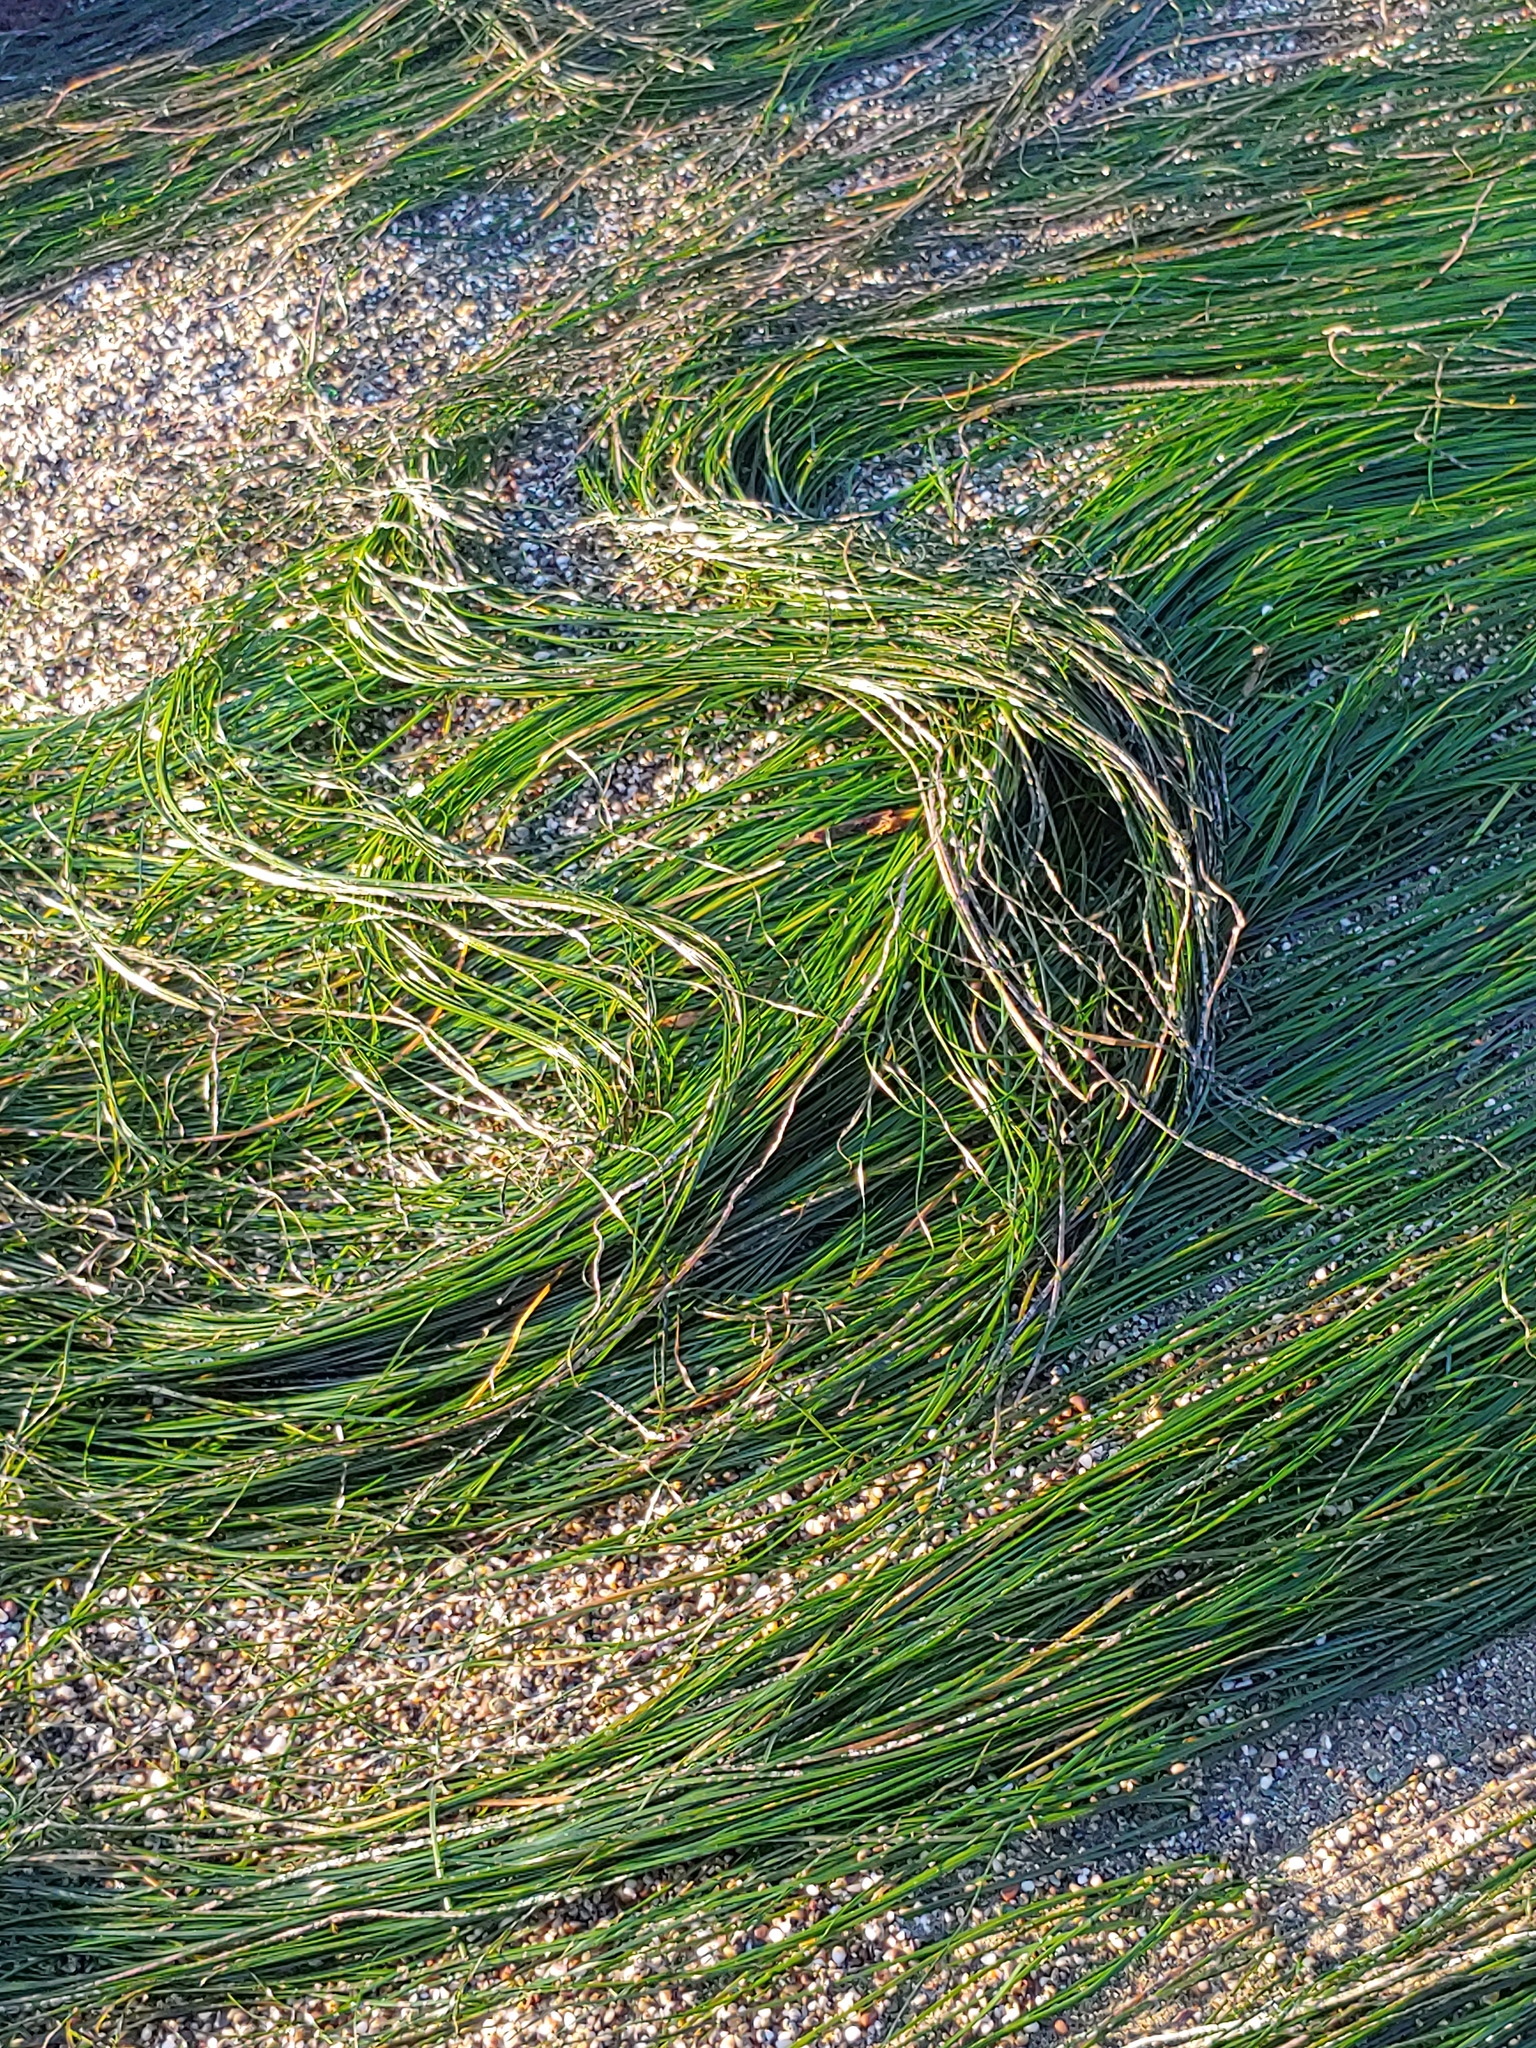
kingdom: Plantae
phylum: Tracheophyta
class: Liliopsida
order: Alismatales
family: Zosteraceae
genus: Phyllospadix
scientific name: Phyllospadix torreyi
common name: Surfgrass
